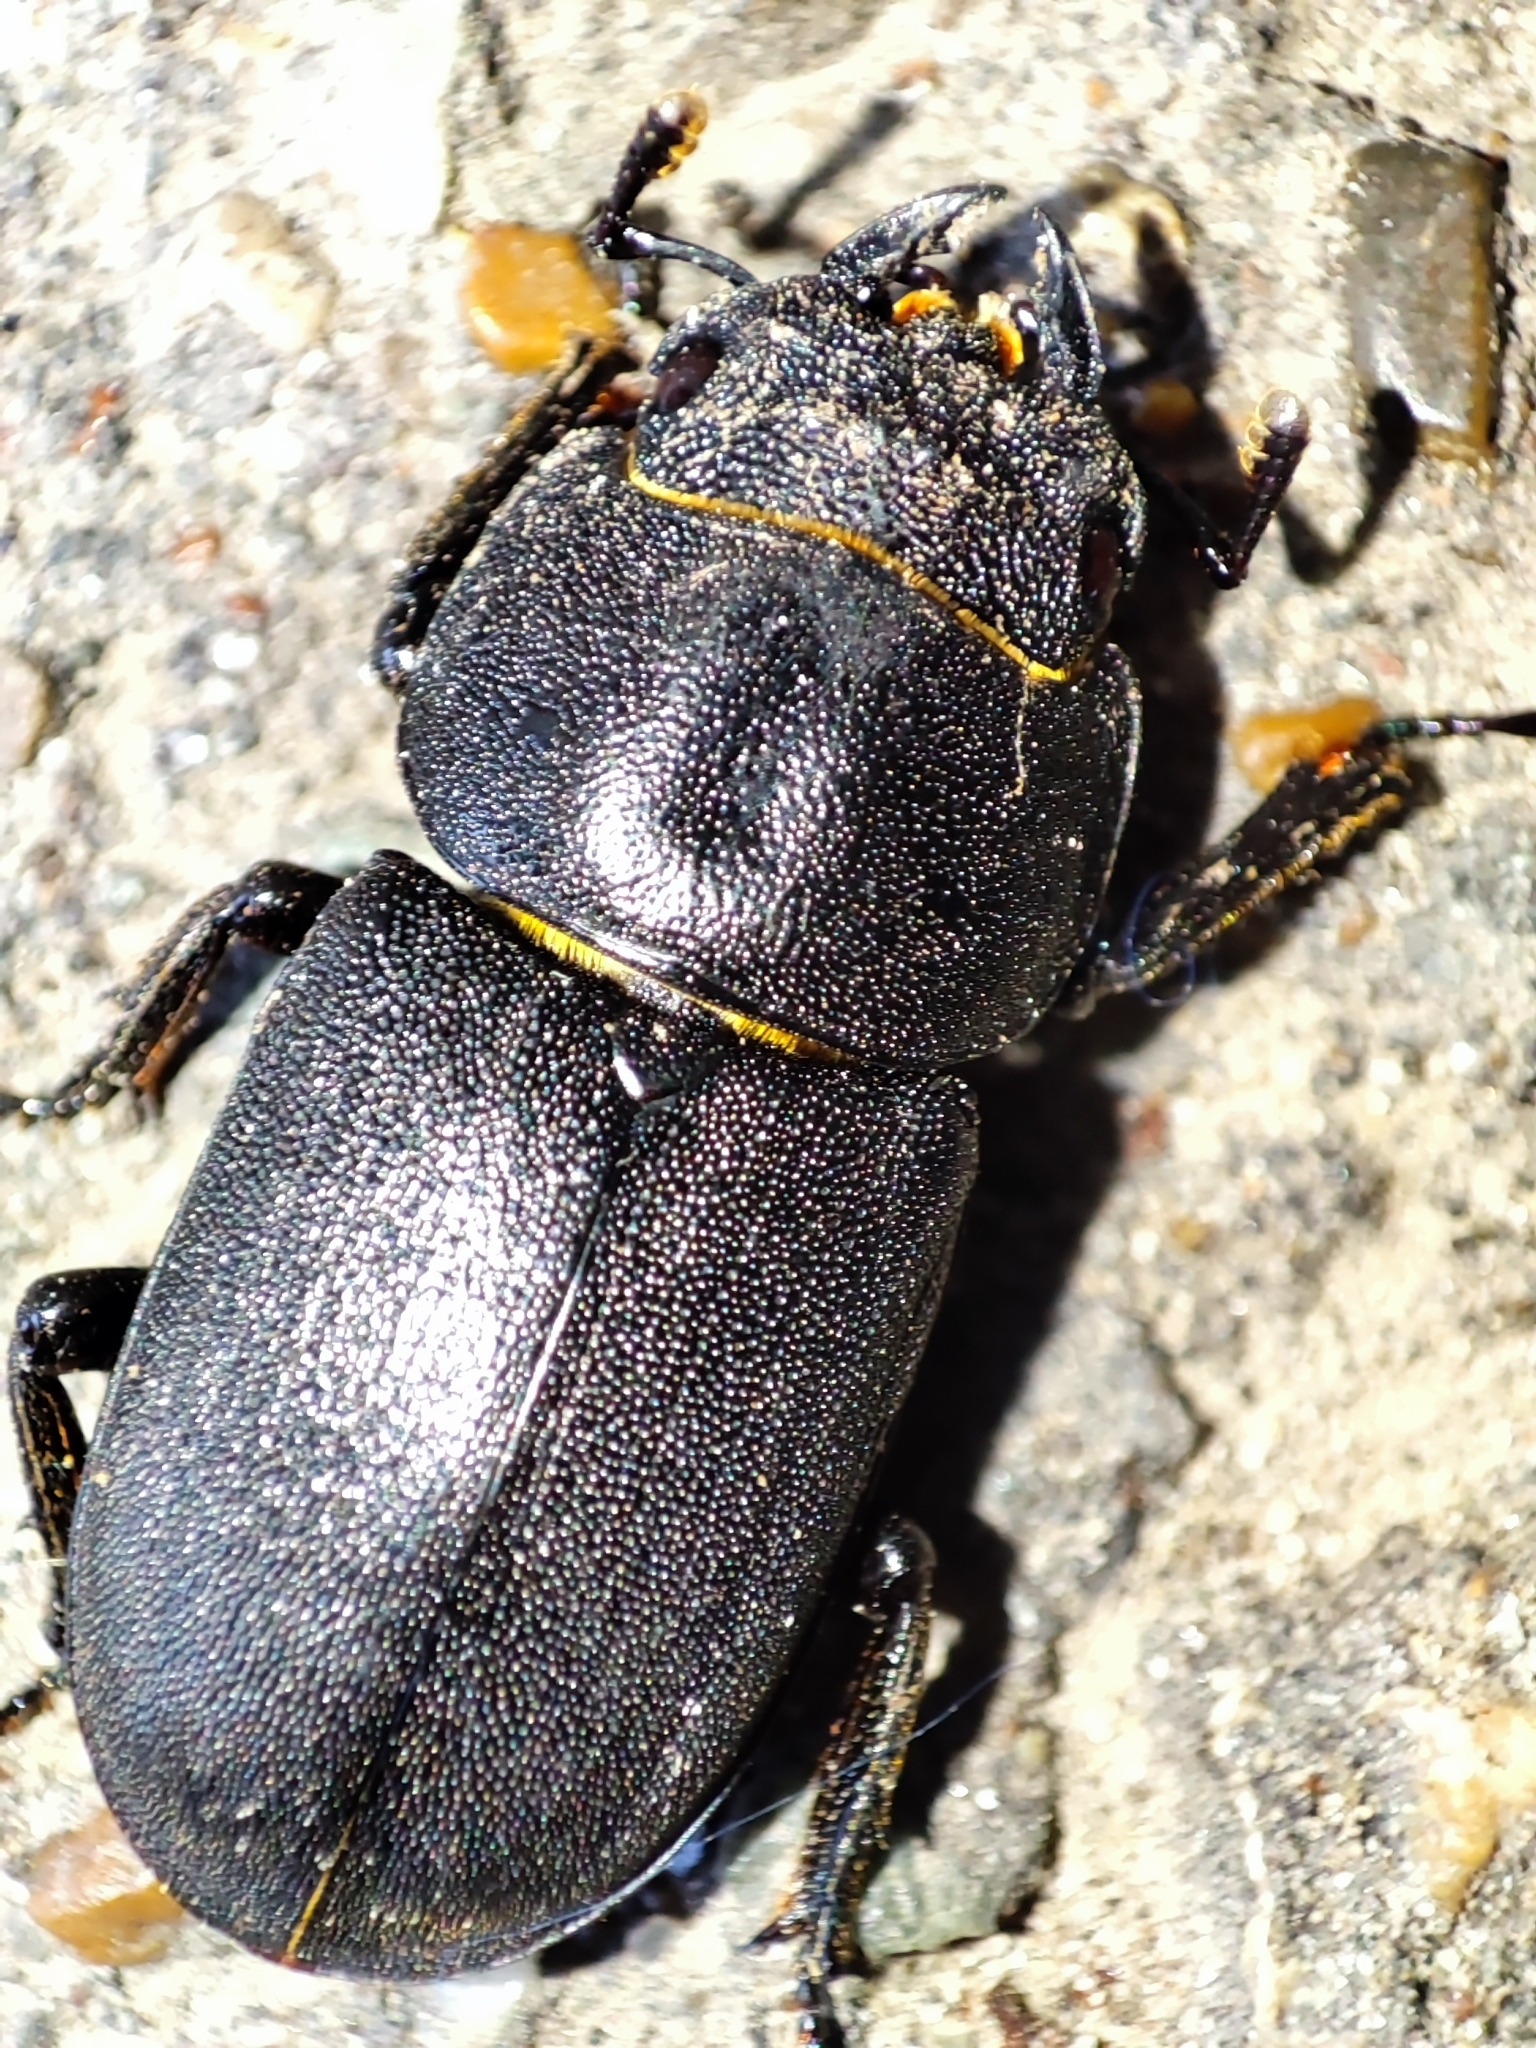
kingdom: Animalia
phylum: Arthropoda
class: Insecta
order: Coleoptera
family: Lucanidae
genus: Dorcus
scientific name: Dorcus parallelipipedus
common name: Lesser stag beetle
